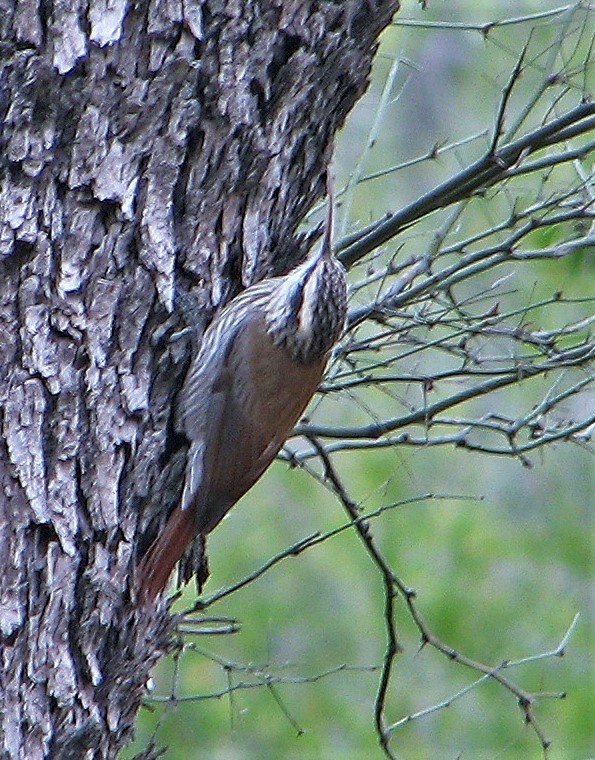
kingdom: Animalia
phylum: Chordata
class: Aves
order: Passeriformes
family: Furnariidae
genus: Lepidocolaptes
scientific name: Lepidocolaptes angustirostris
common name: Narrow-billed woodcreeper
